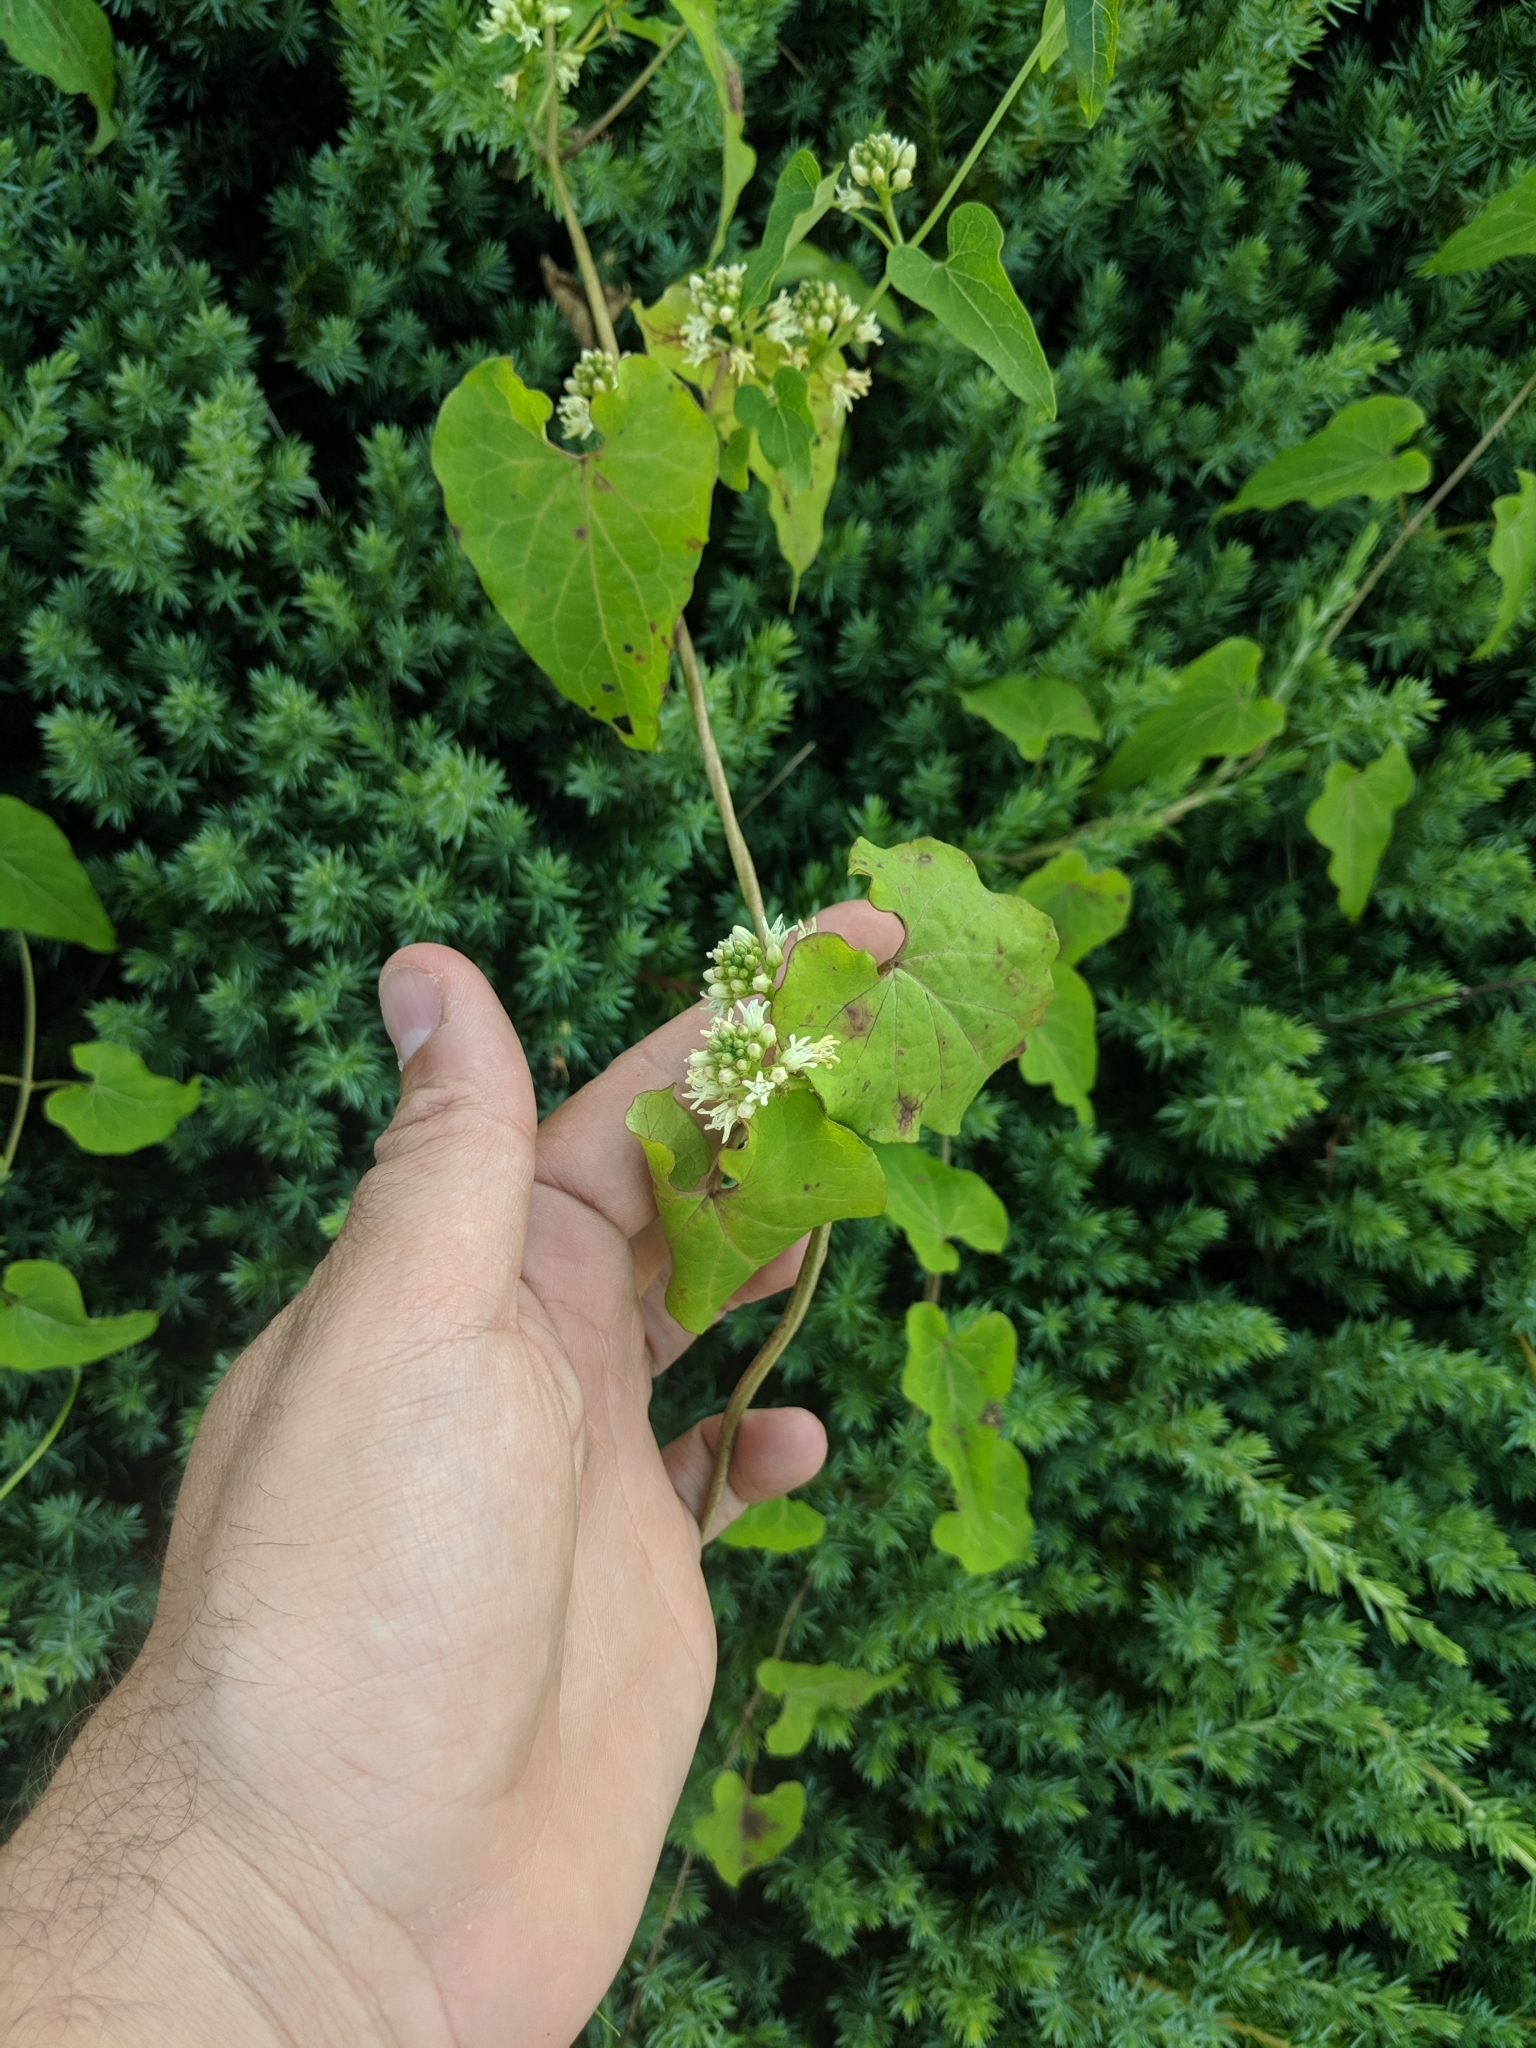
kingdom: Plantae
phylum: Tracheophyta
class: Magnoliopsida
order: Gentianales
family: Apocynaceae
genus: Cynanchum
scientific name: Cynanchum laeve
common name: Sandvine
